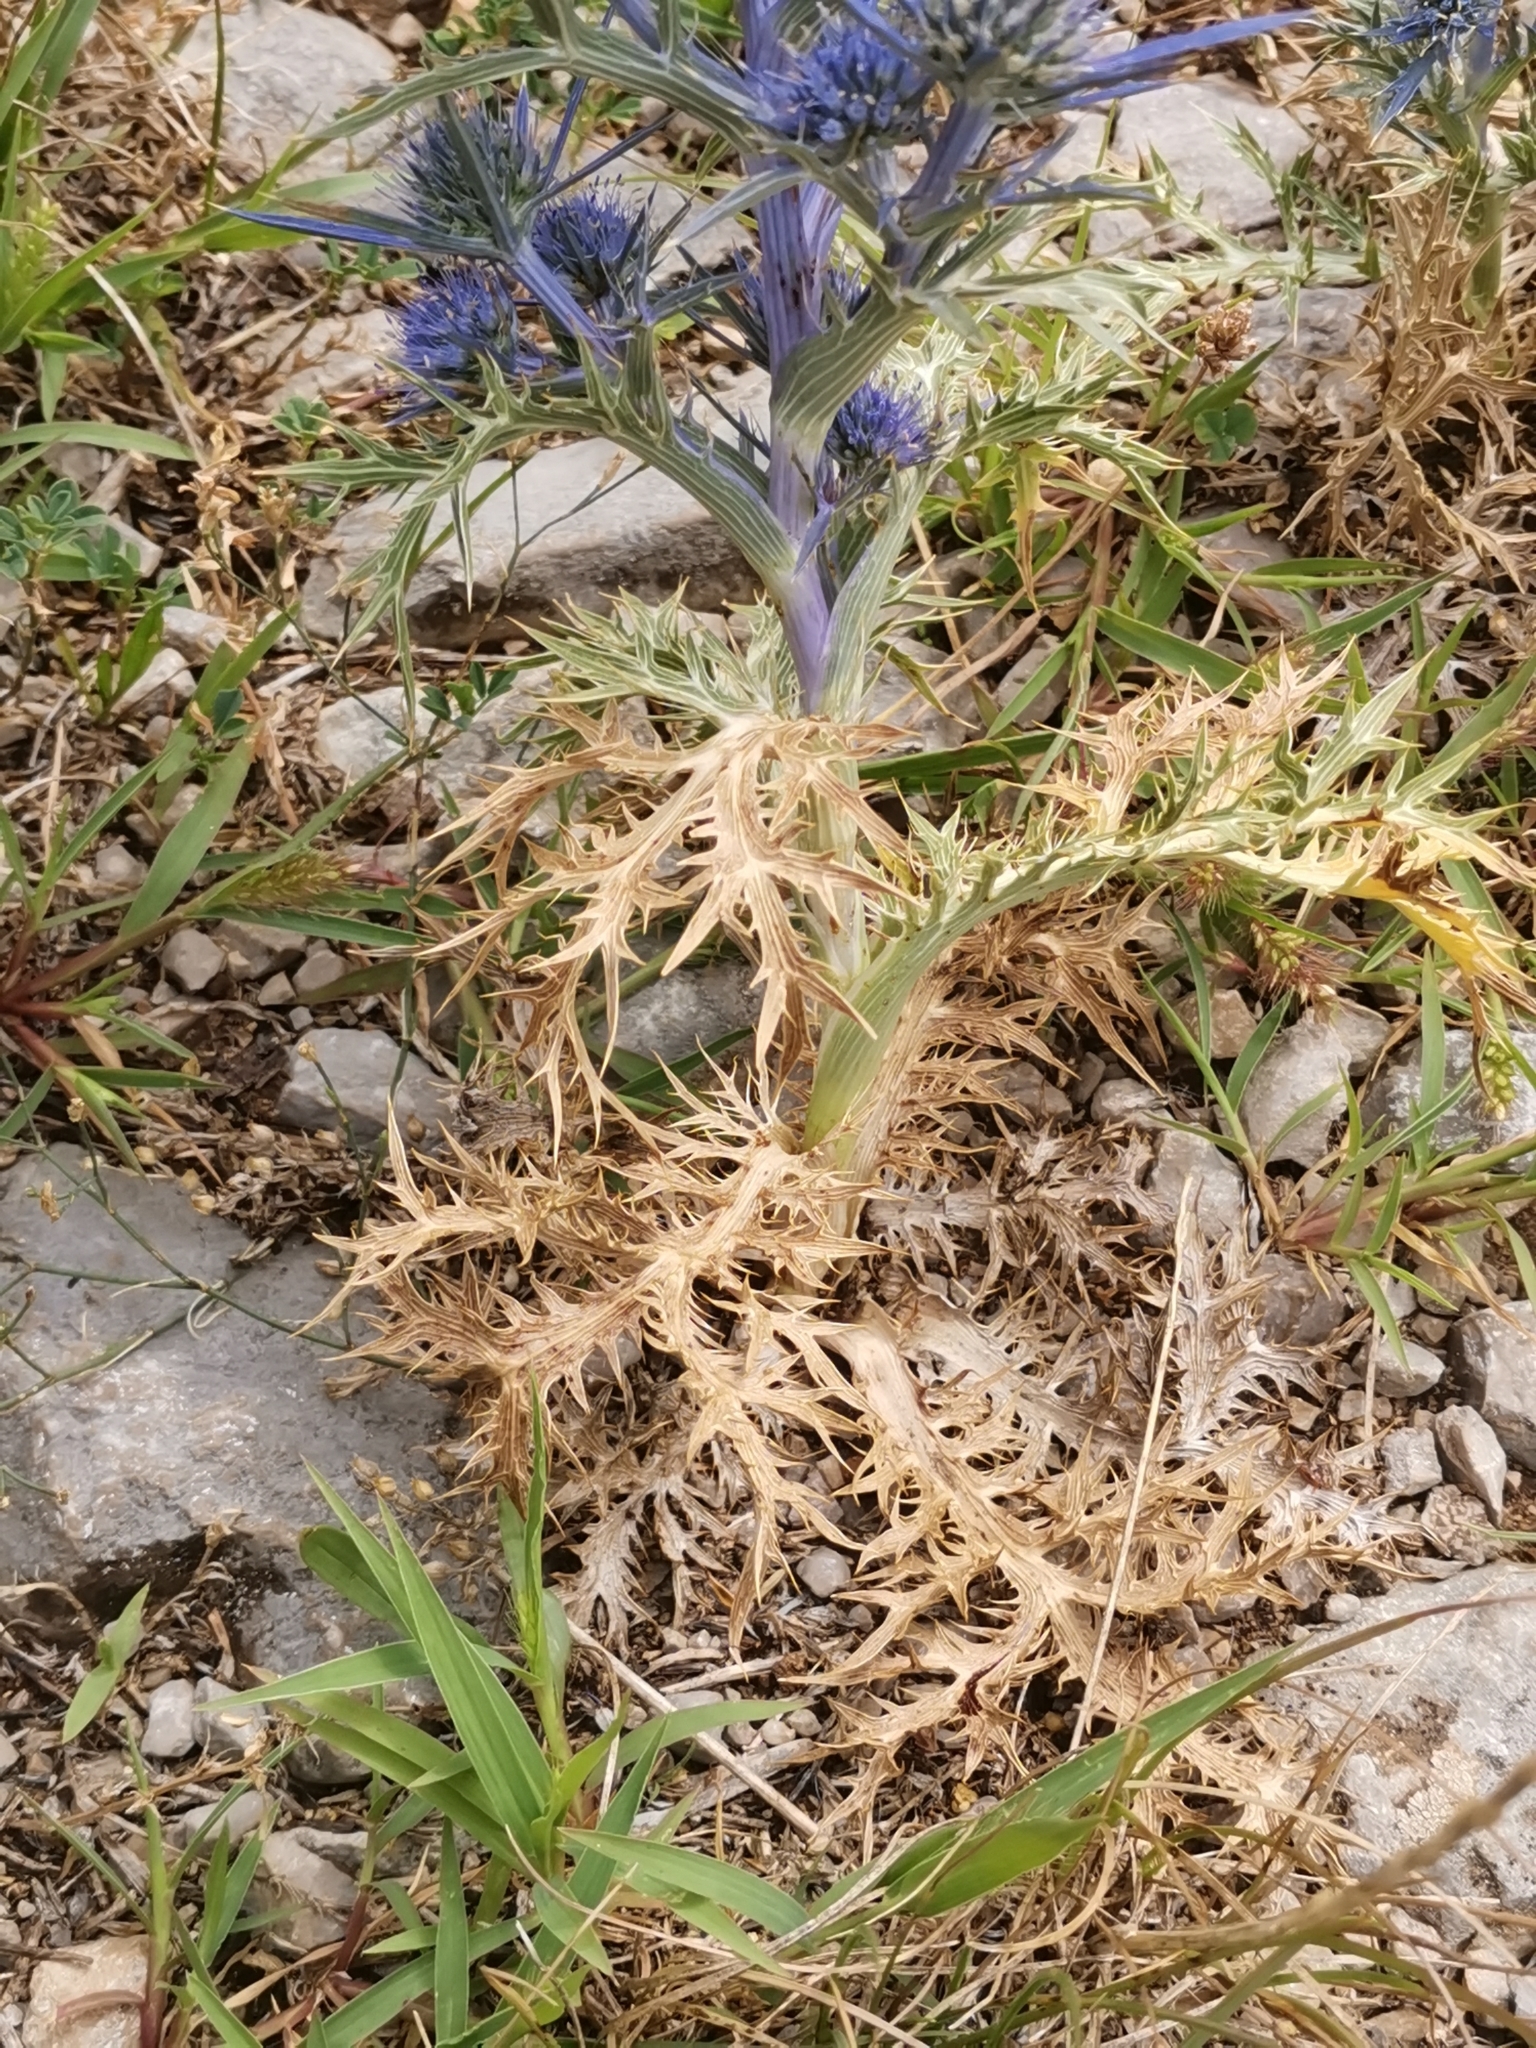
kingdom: Plantae
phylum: Tracheophyta
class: Magnoliopsida
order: Apiales
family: Apiaceae
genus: Eryngium
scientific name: Eryngium amethystinum
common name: Amethyst eryngo
